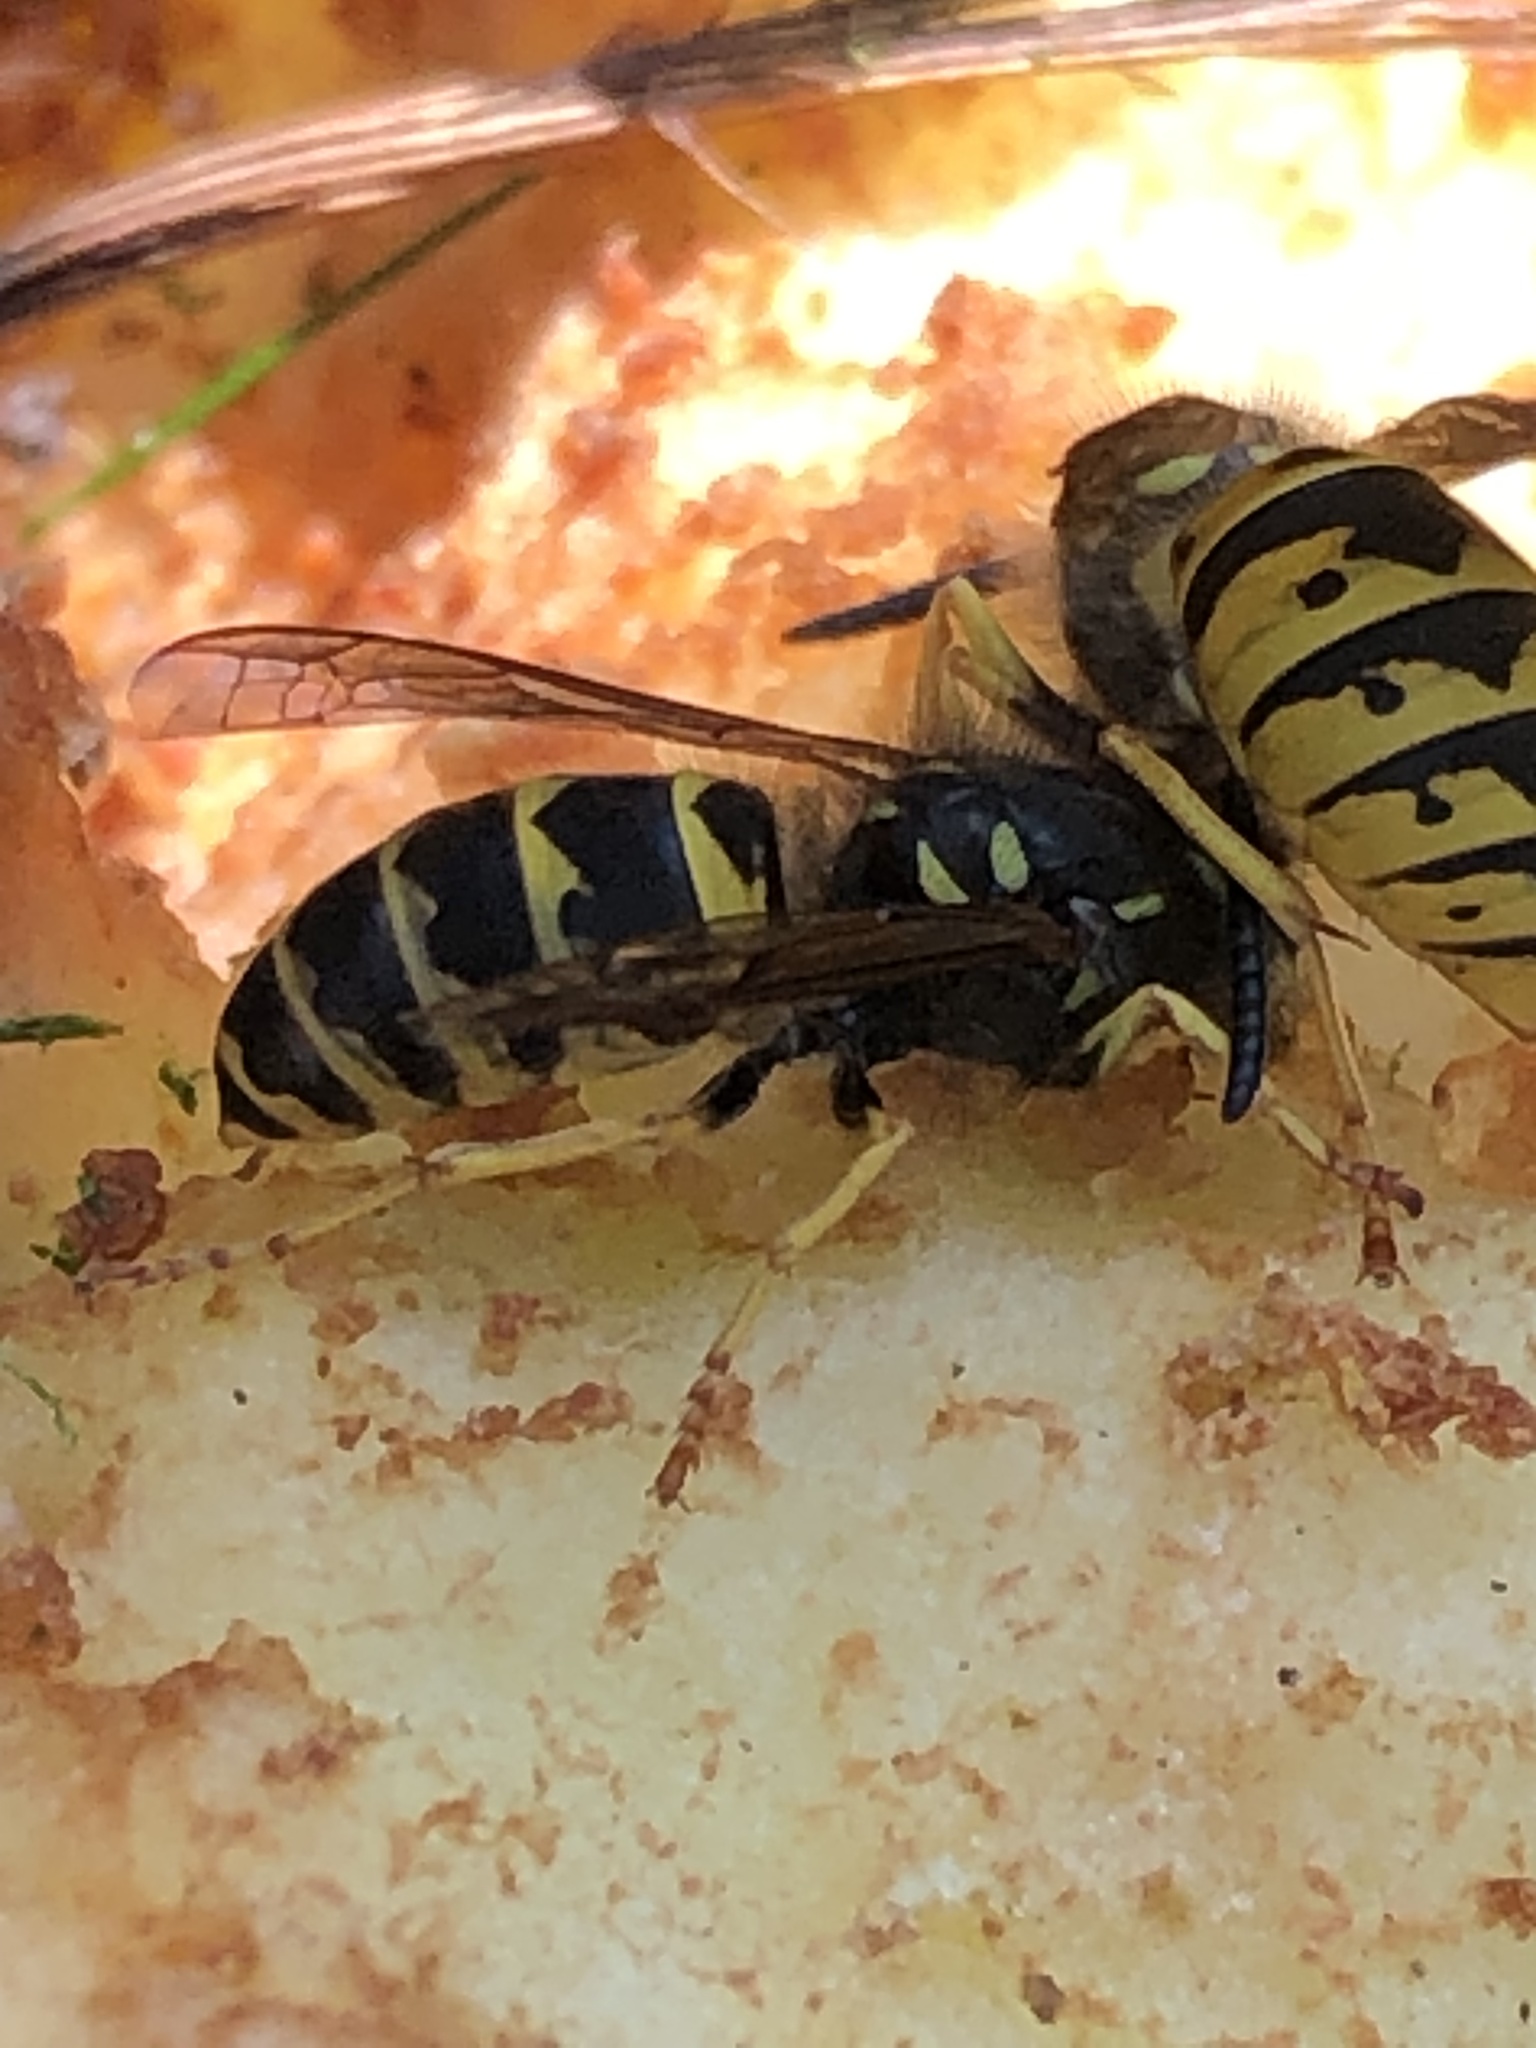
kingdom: Animalia
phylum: Arthropoda
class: Insecta
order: Hymenoptera
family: Vespidae
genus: Vespula
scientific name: Vespula alascensis
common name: Alaska yellowjacket
